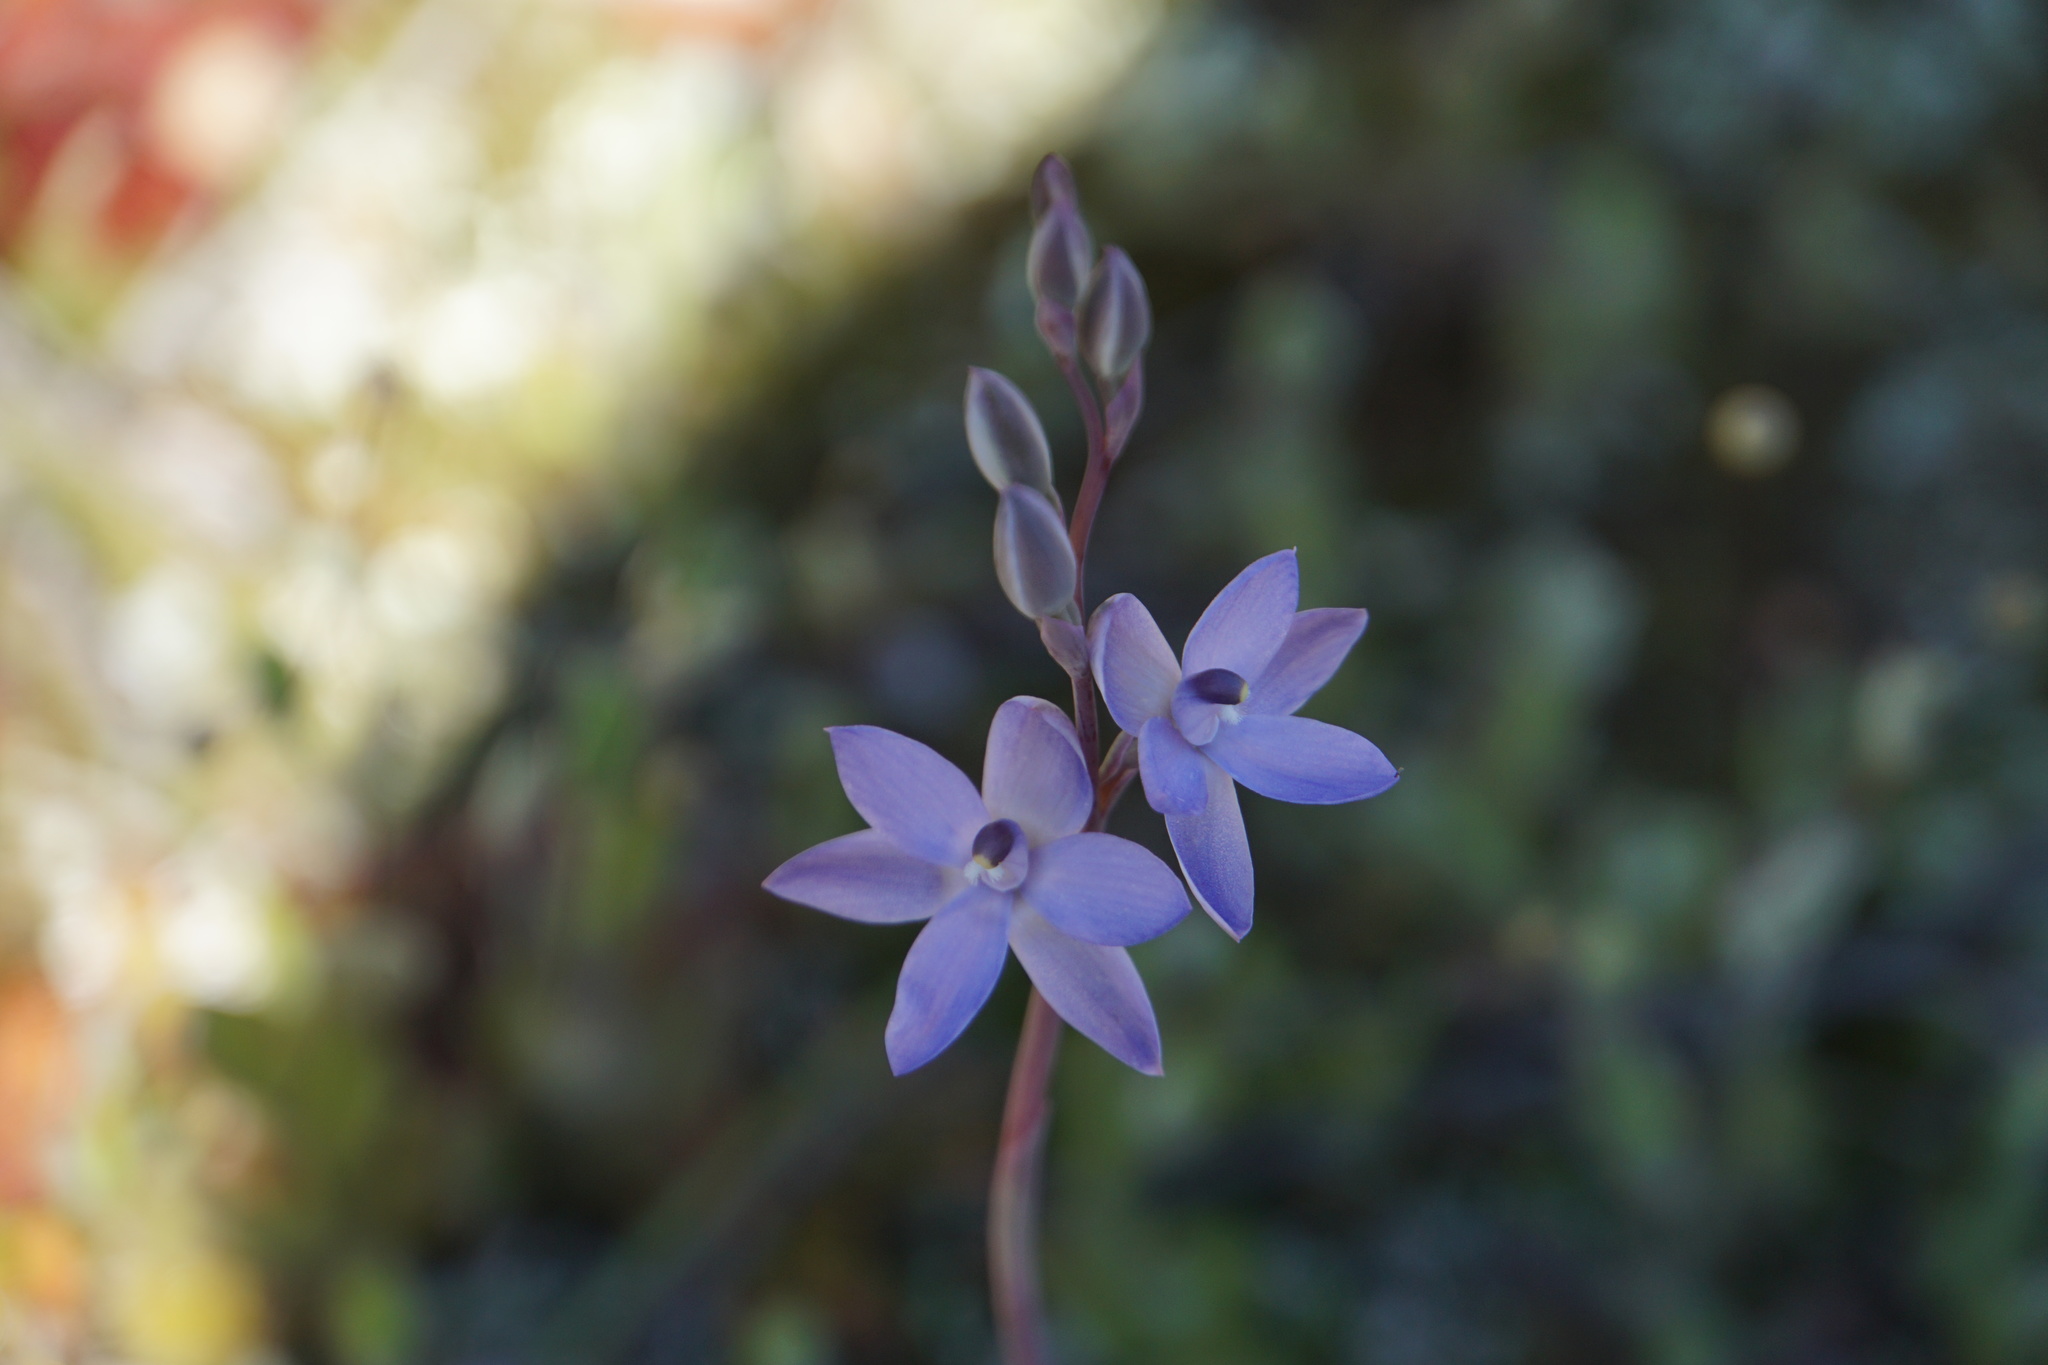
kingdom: Plantae
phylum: Tracheophyta
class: Liliopsida
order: Asparagales
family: Orchidaceae
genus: Thelymitra
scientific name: Thelymitra petrophila
